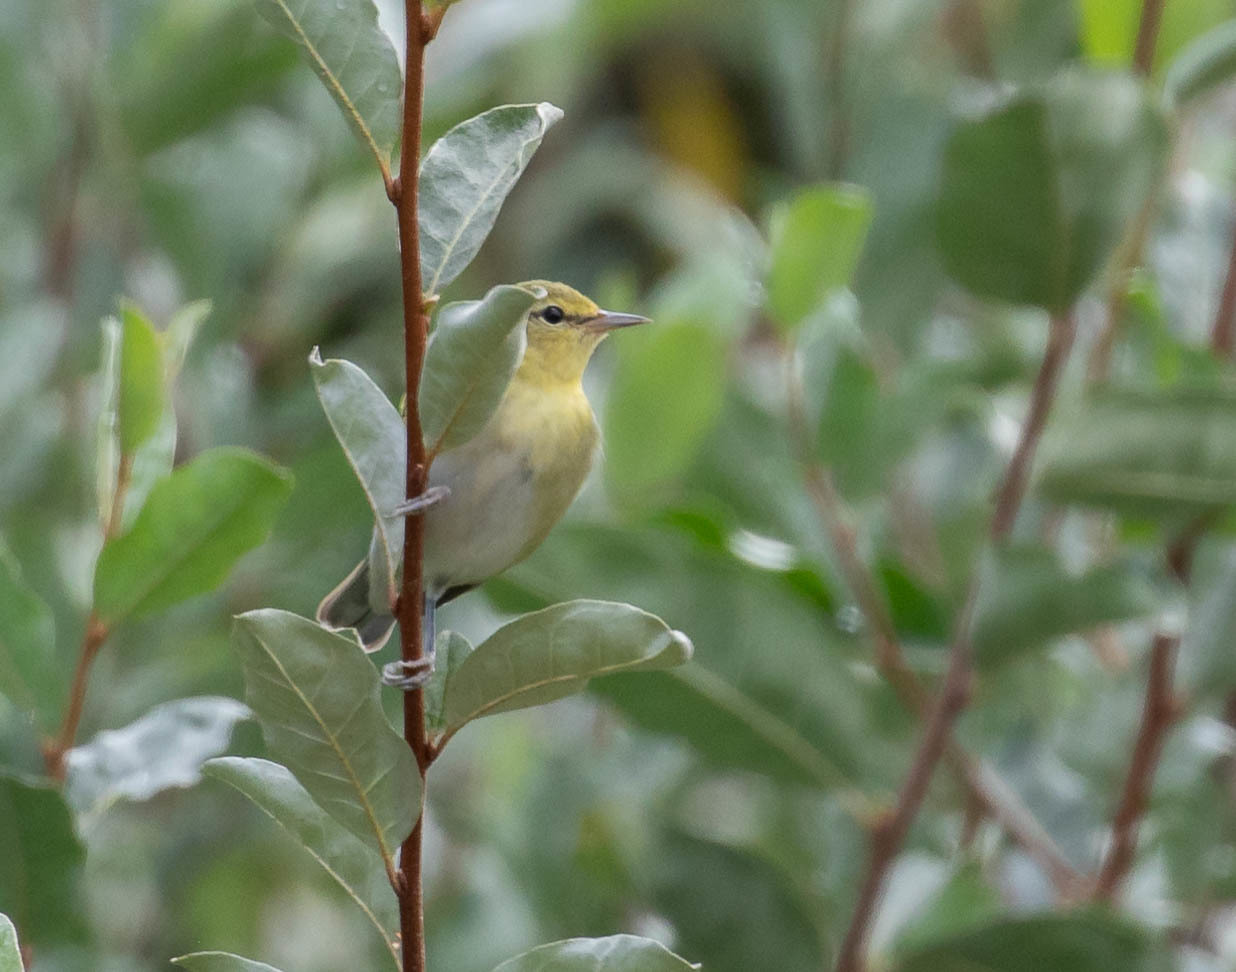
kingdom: Animalia
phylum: Chordata
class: Aves
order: Passeriformes
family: Parulidae
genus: Leiothlypis
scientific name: Leiothlypis peregrina
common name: Tennessee warbler
